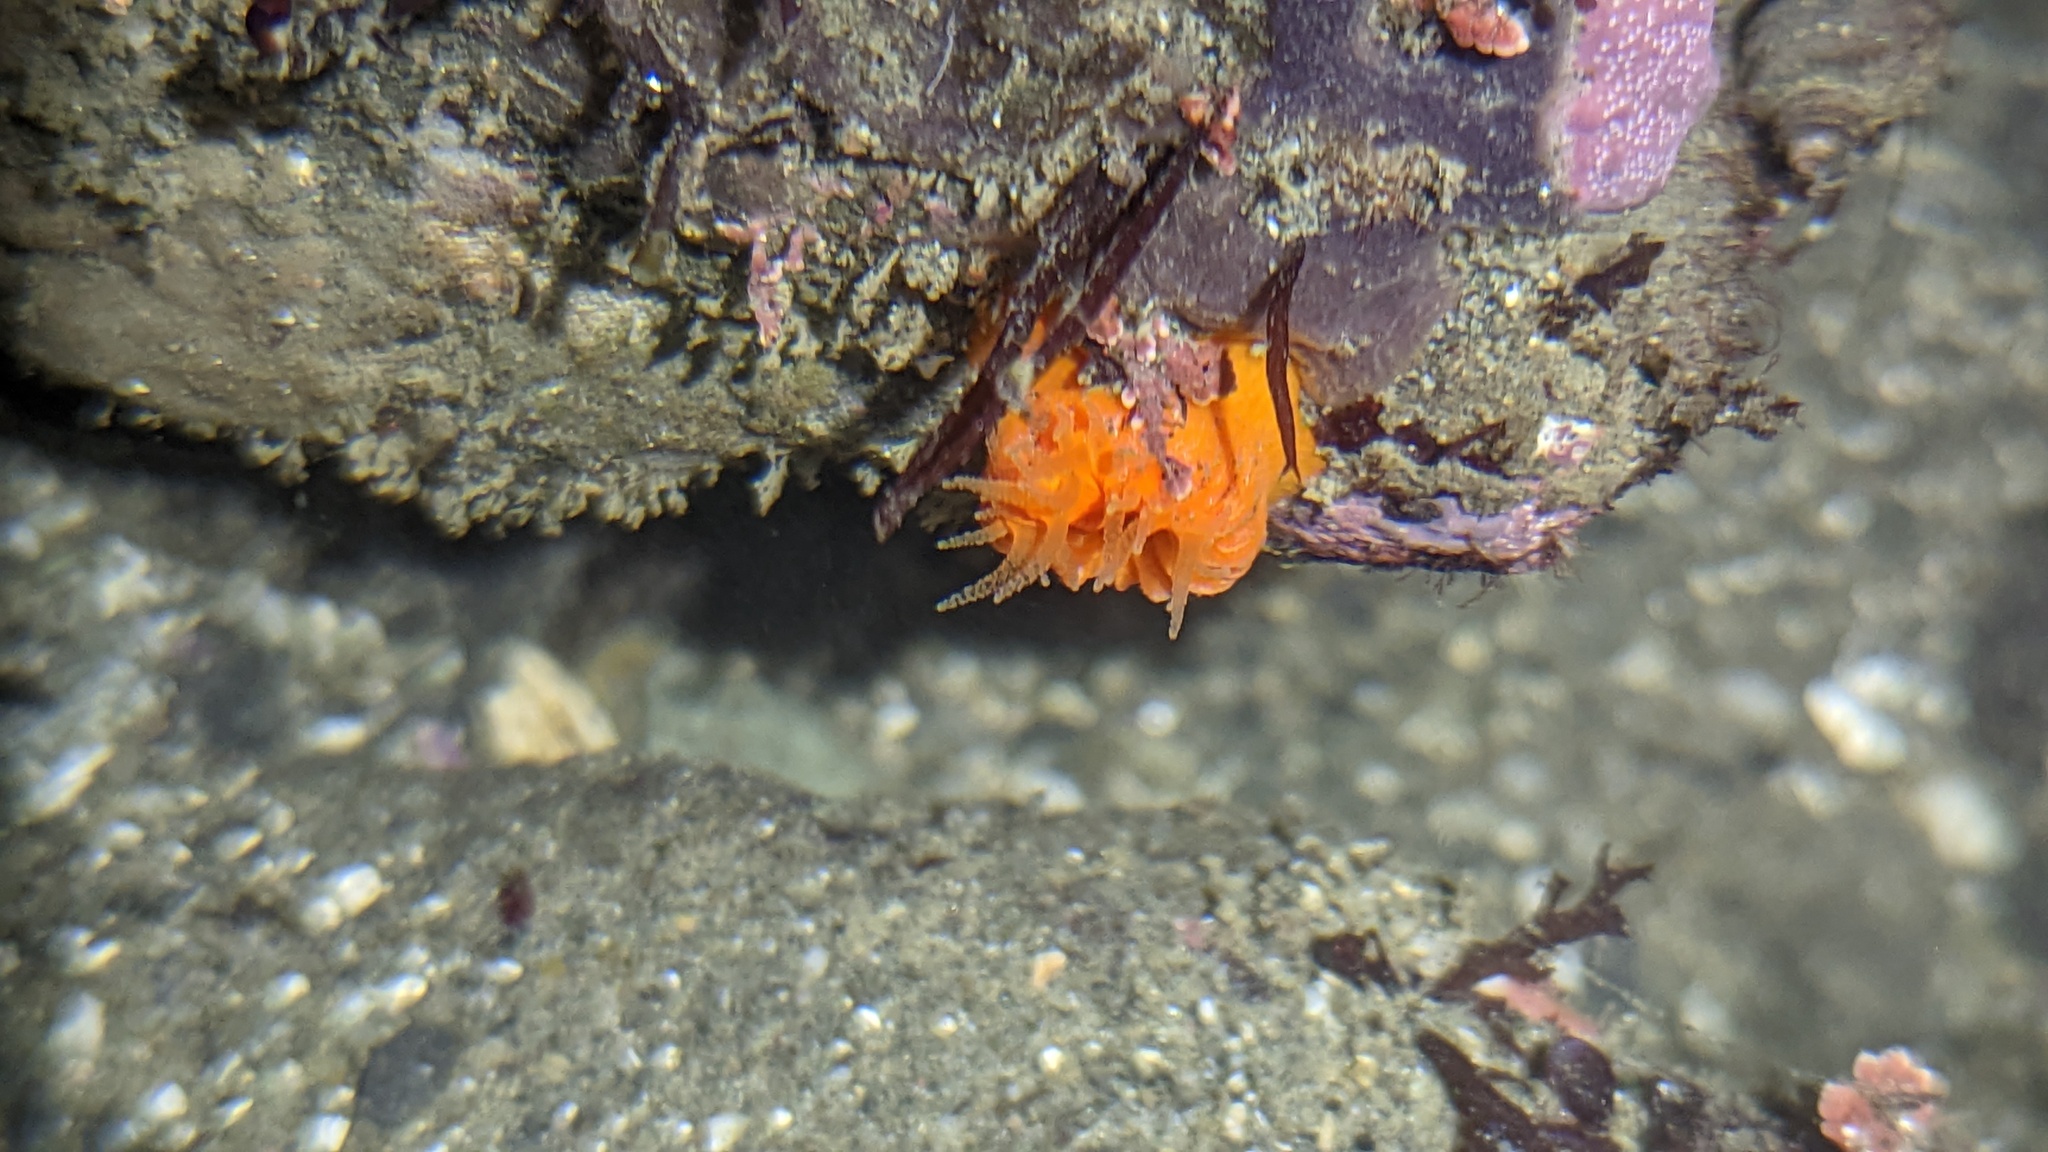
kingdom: Animalia
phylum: Cnidaria
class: Anthozoa
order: Scleractinia
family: Dendrophylliidae
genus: Balanophyllia
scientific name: Balanophyllia elegans
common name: Orange stony coral
